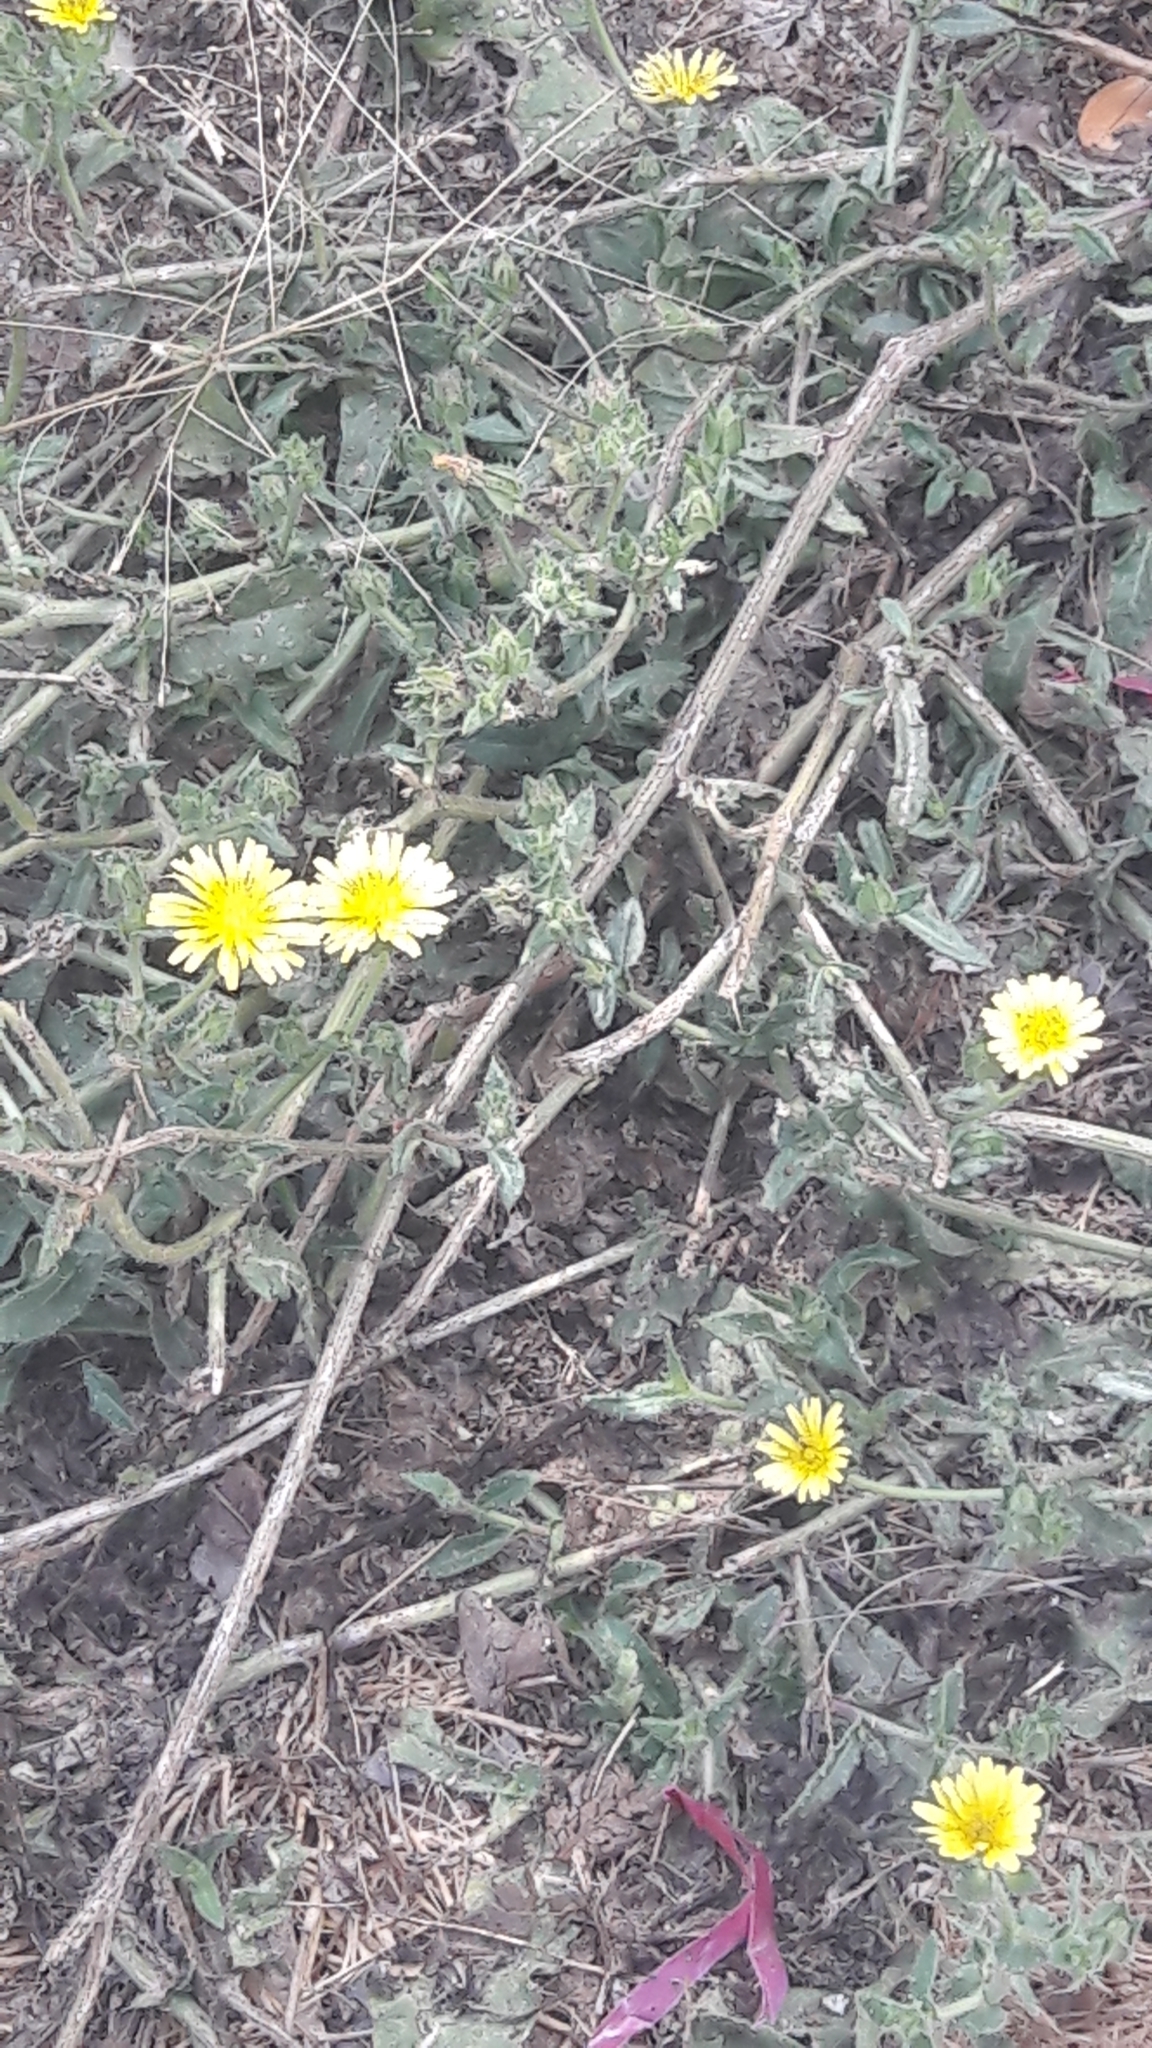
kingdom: Plantae
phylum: Tracheophyta
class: Magnoliopsida
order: Asterales
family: Asteraceae
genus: Helminthotheca
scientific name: Helminthotheca echioides
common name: Ox-tongue
